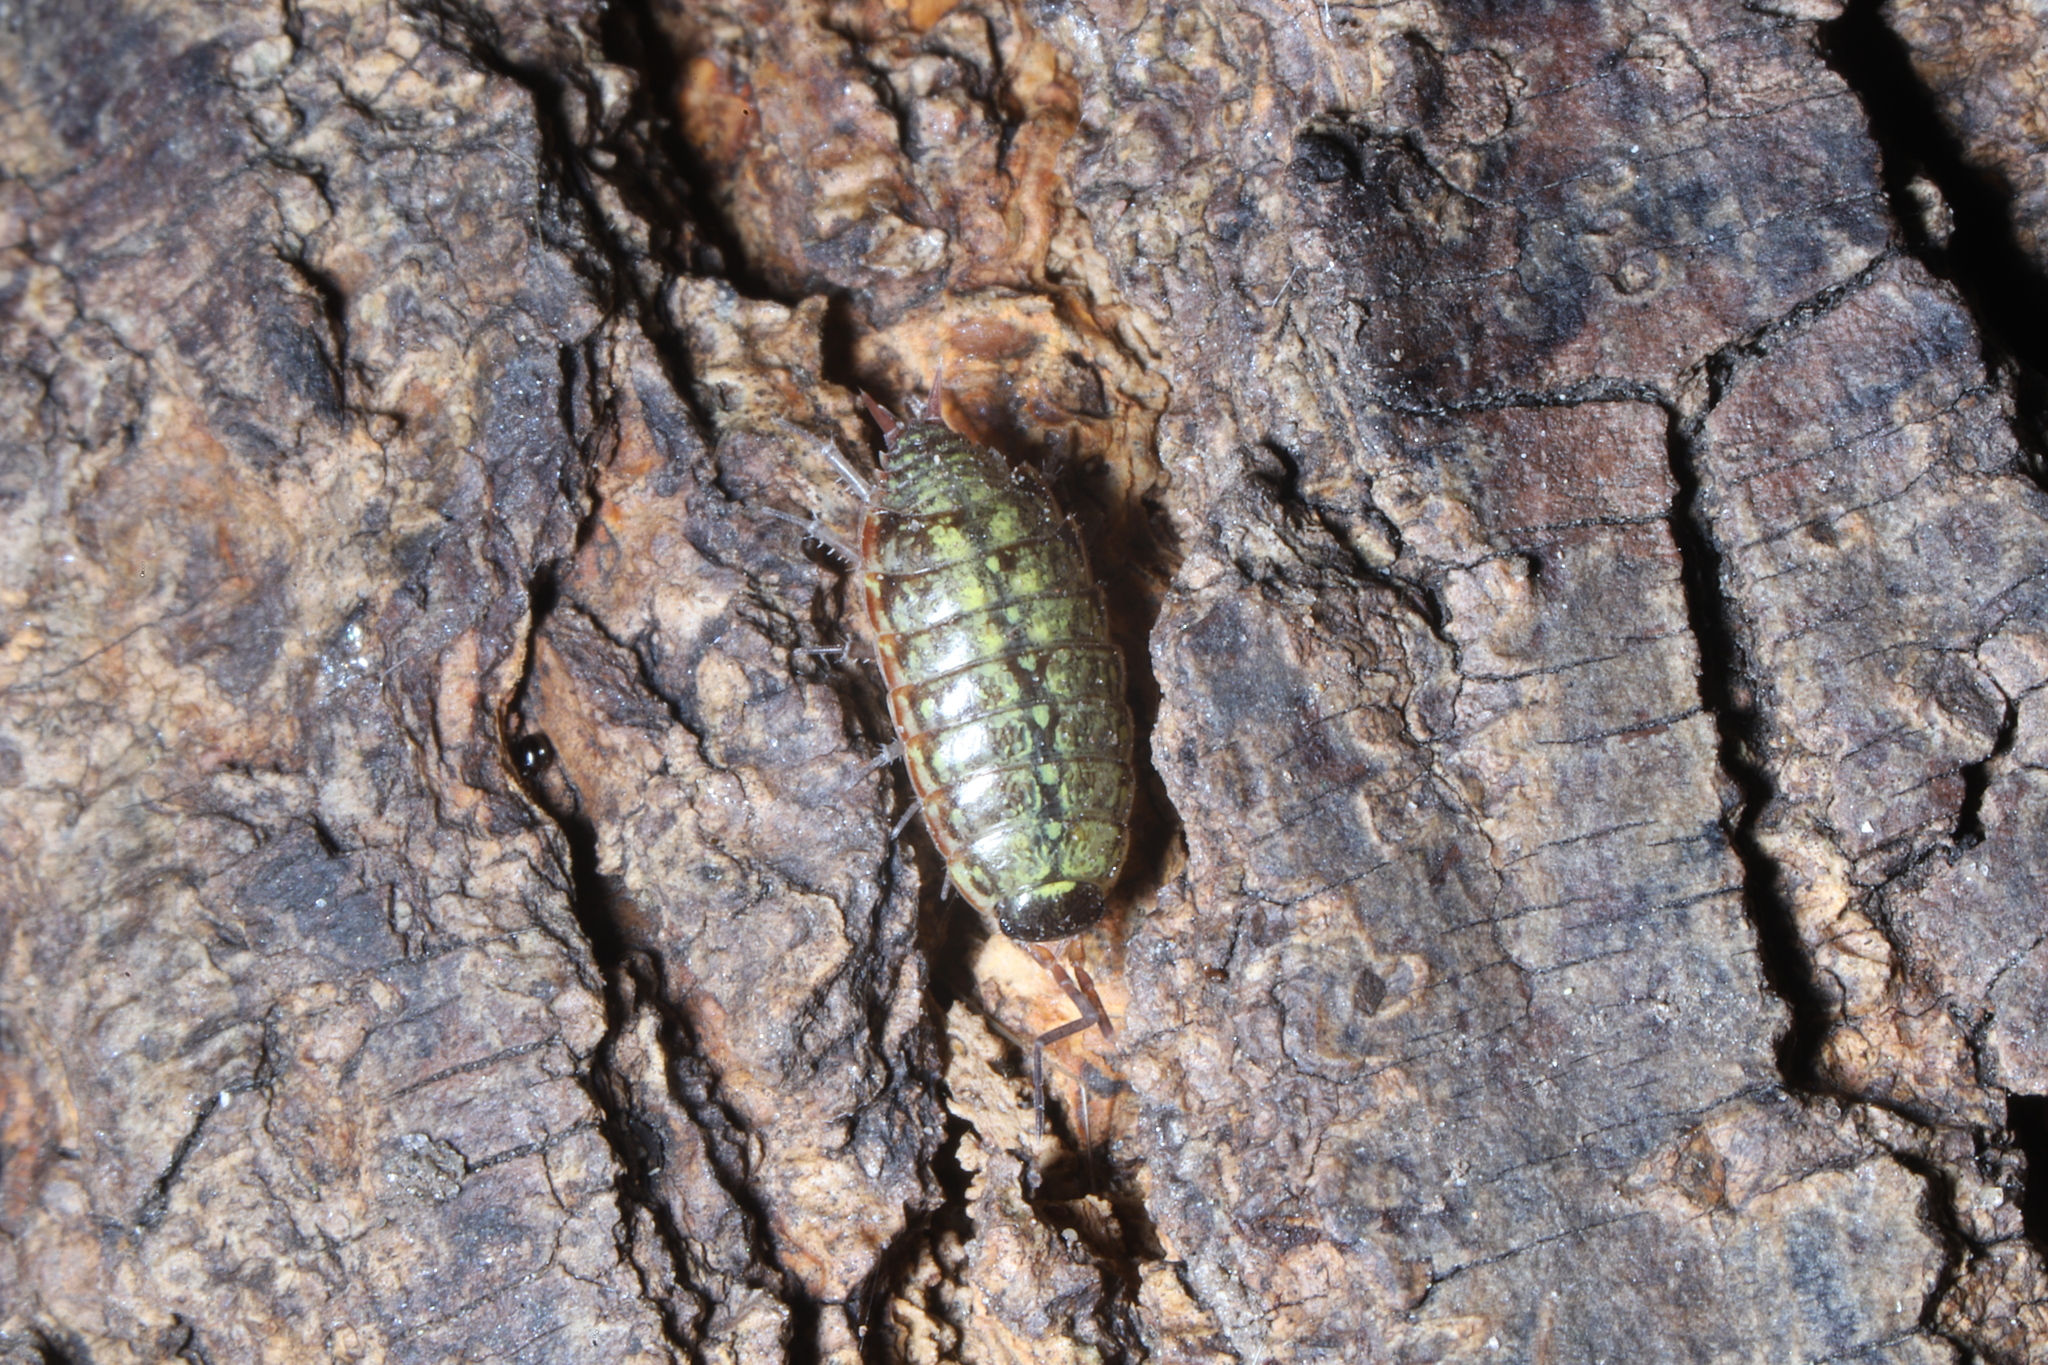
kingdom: Animalia
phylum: Arthropoda
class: Malacostraca
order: Isopoda
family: Philosciidae
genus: Philoscia
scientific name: Philoscia muscorum
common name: Common striped woodlouse
